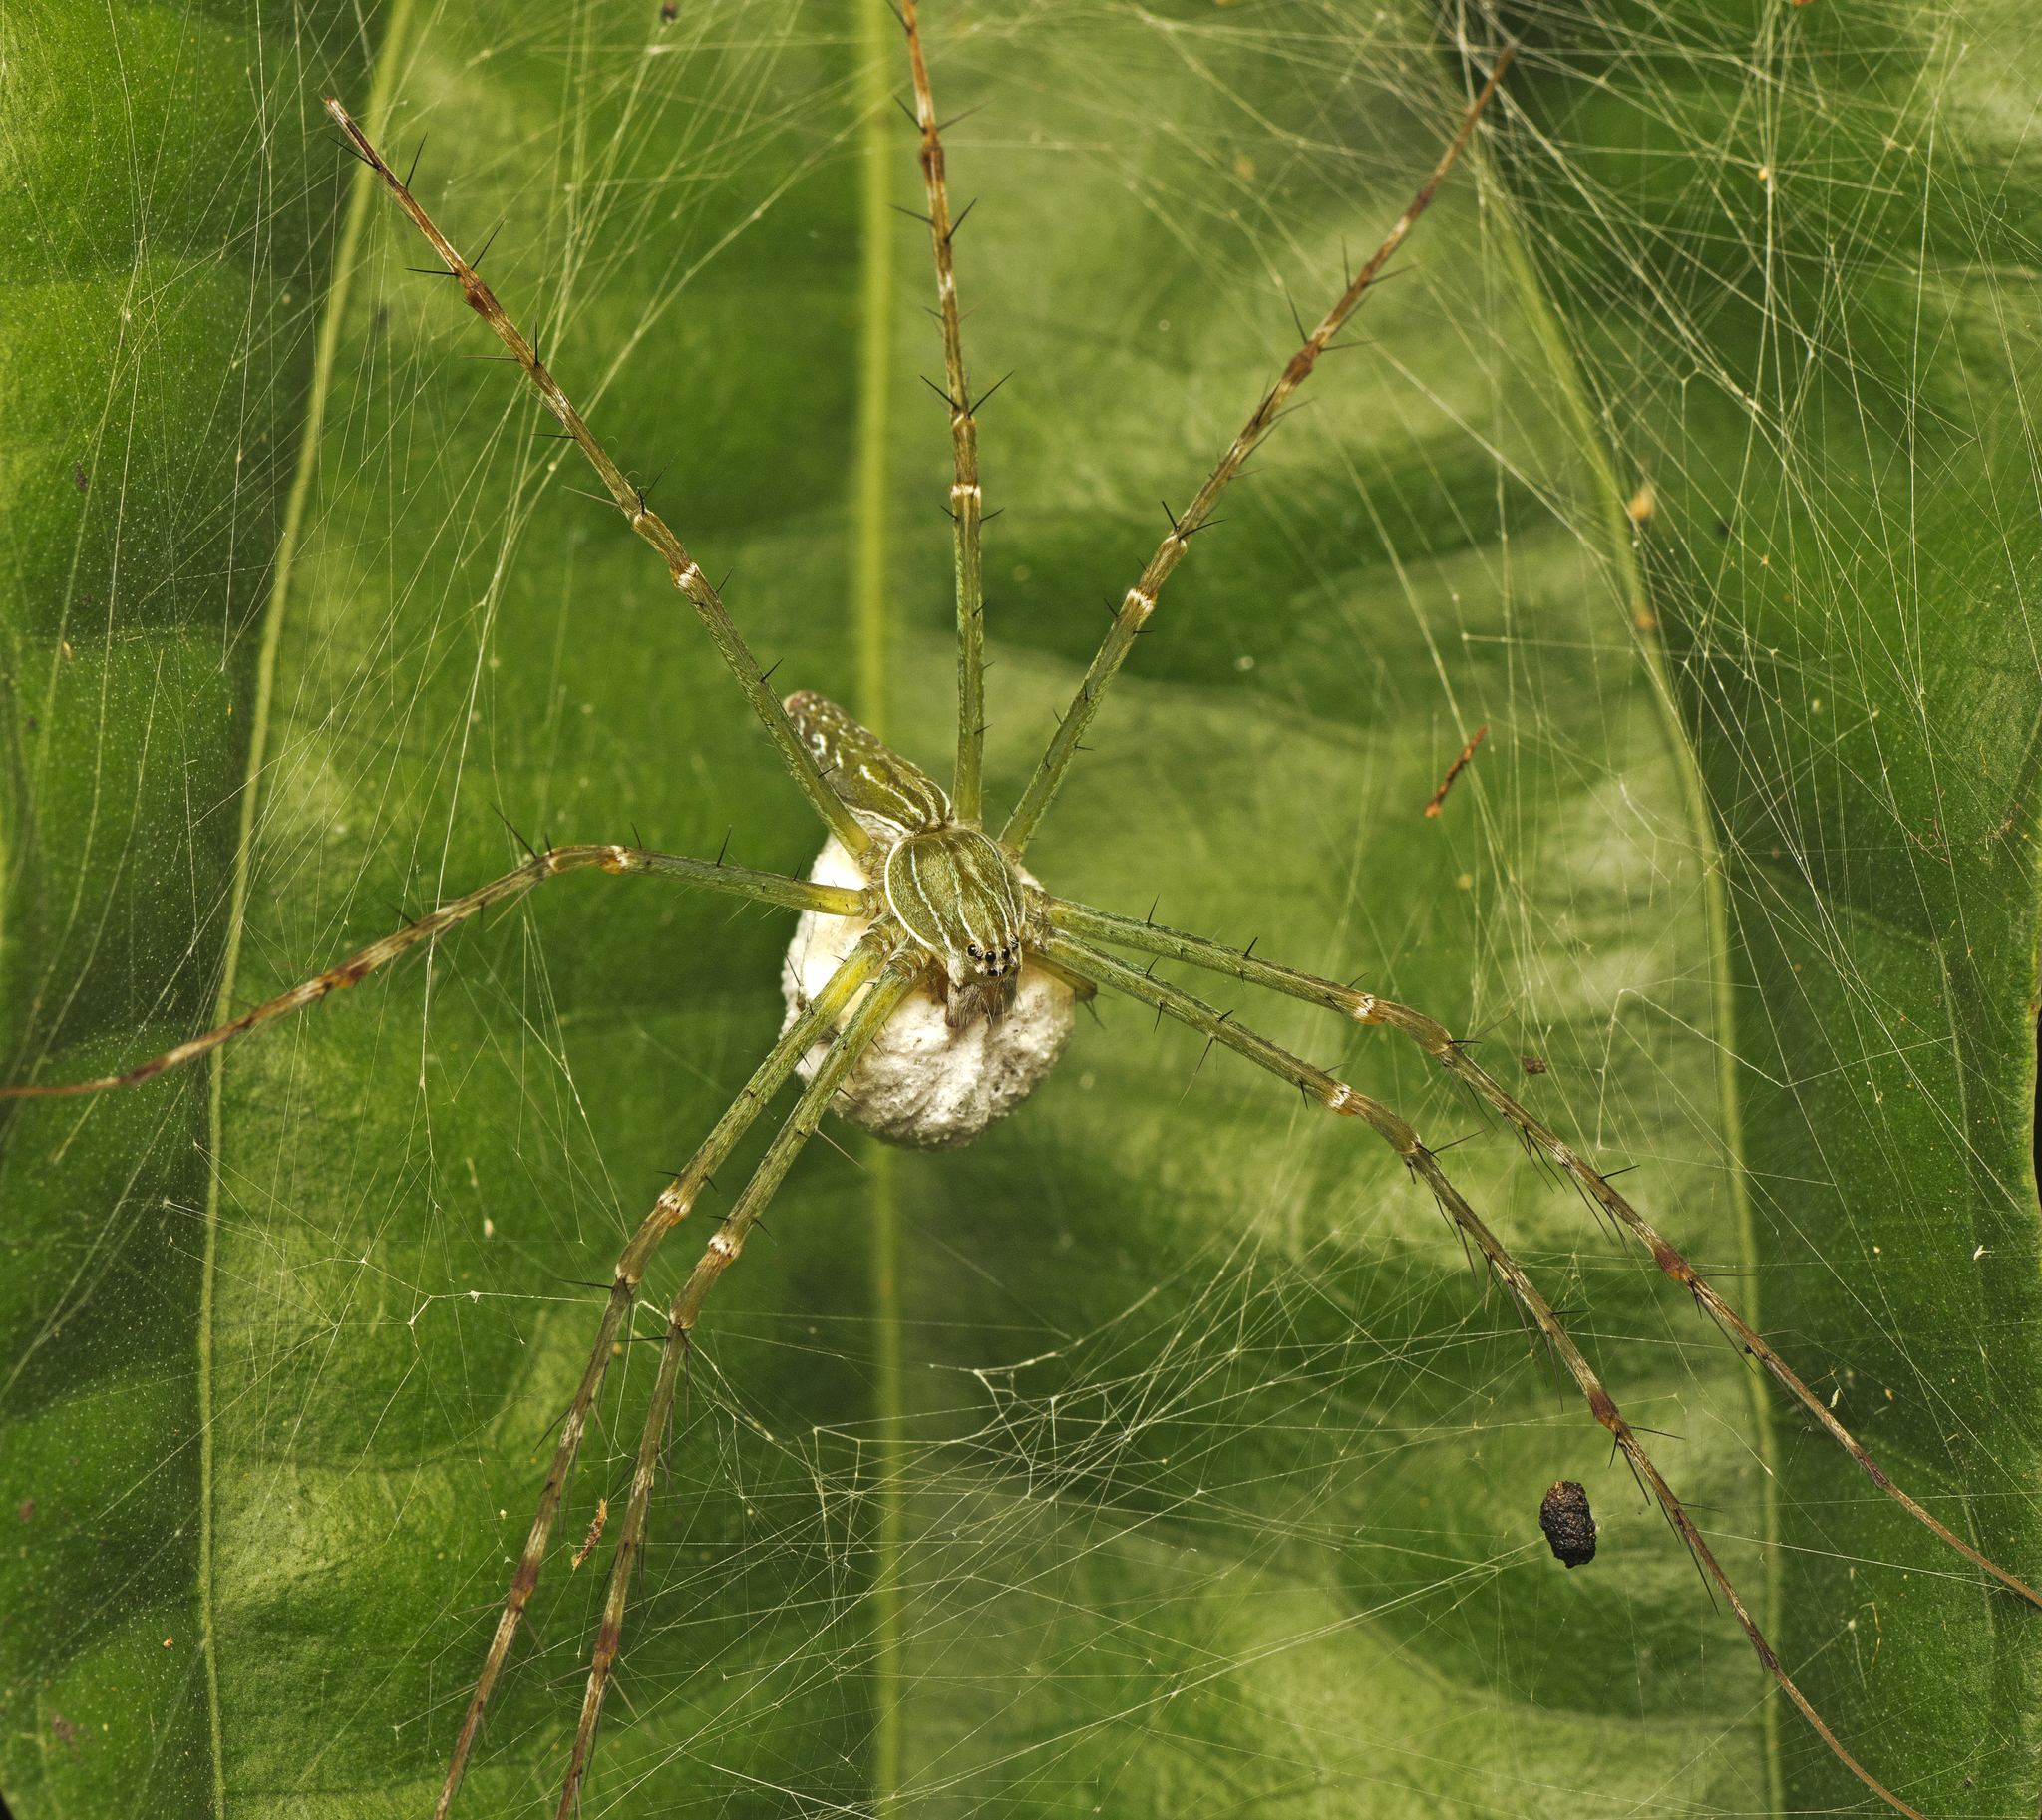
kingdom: Animalia
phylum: Arthropoda
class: Arachnida
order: Araneae
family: Pisauridae
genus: Hygropoda
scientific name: Hygropoda lineata
